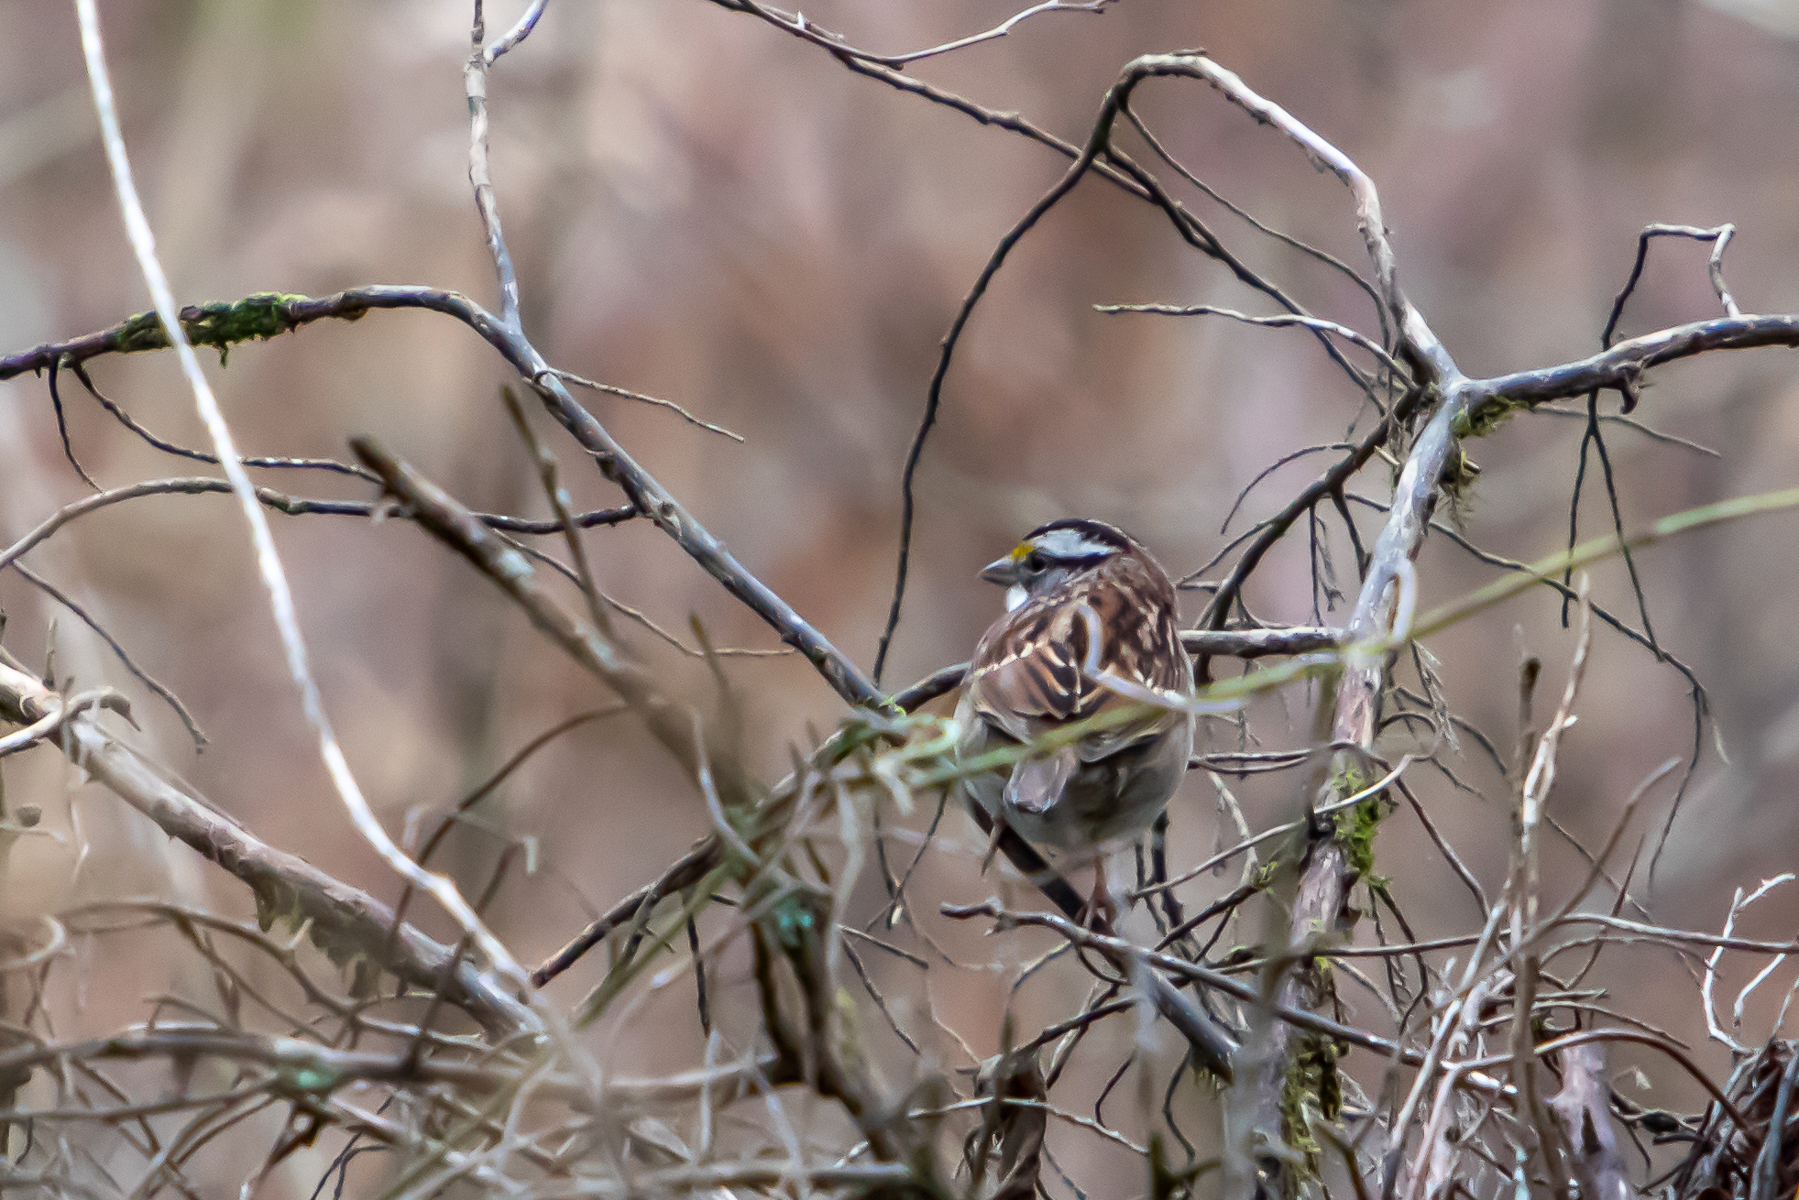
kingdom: Animalia
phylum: Chordata
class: Aves
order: Passeriformes
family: Passerellidae
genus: Zonotrichia
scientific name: Zonotrichia albicollis
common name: White-throated sparrow
